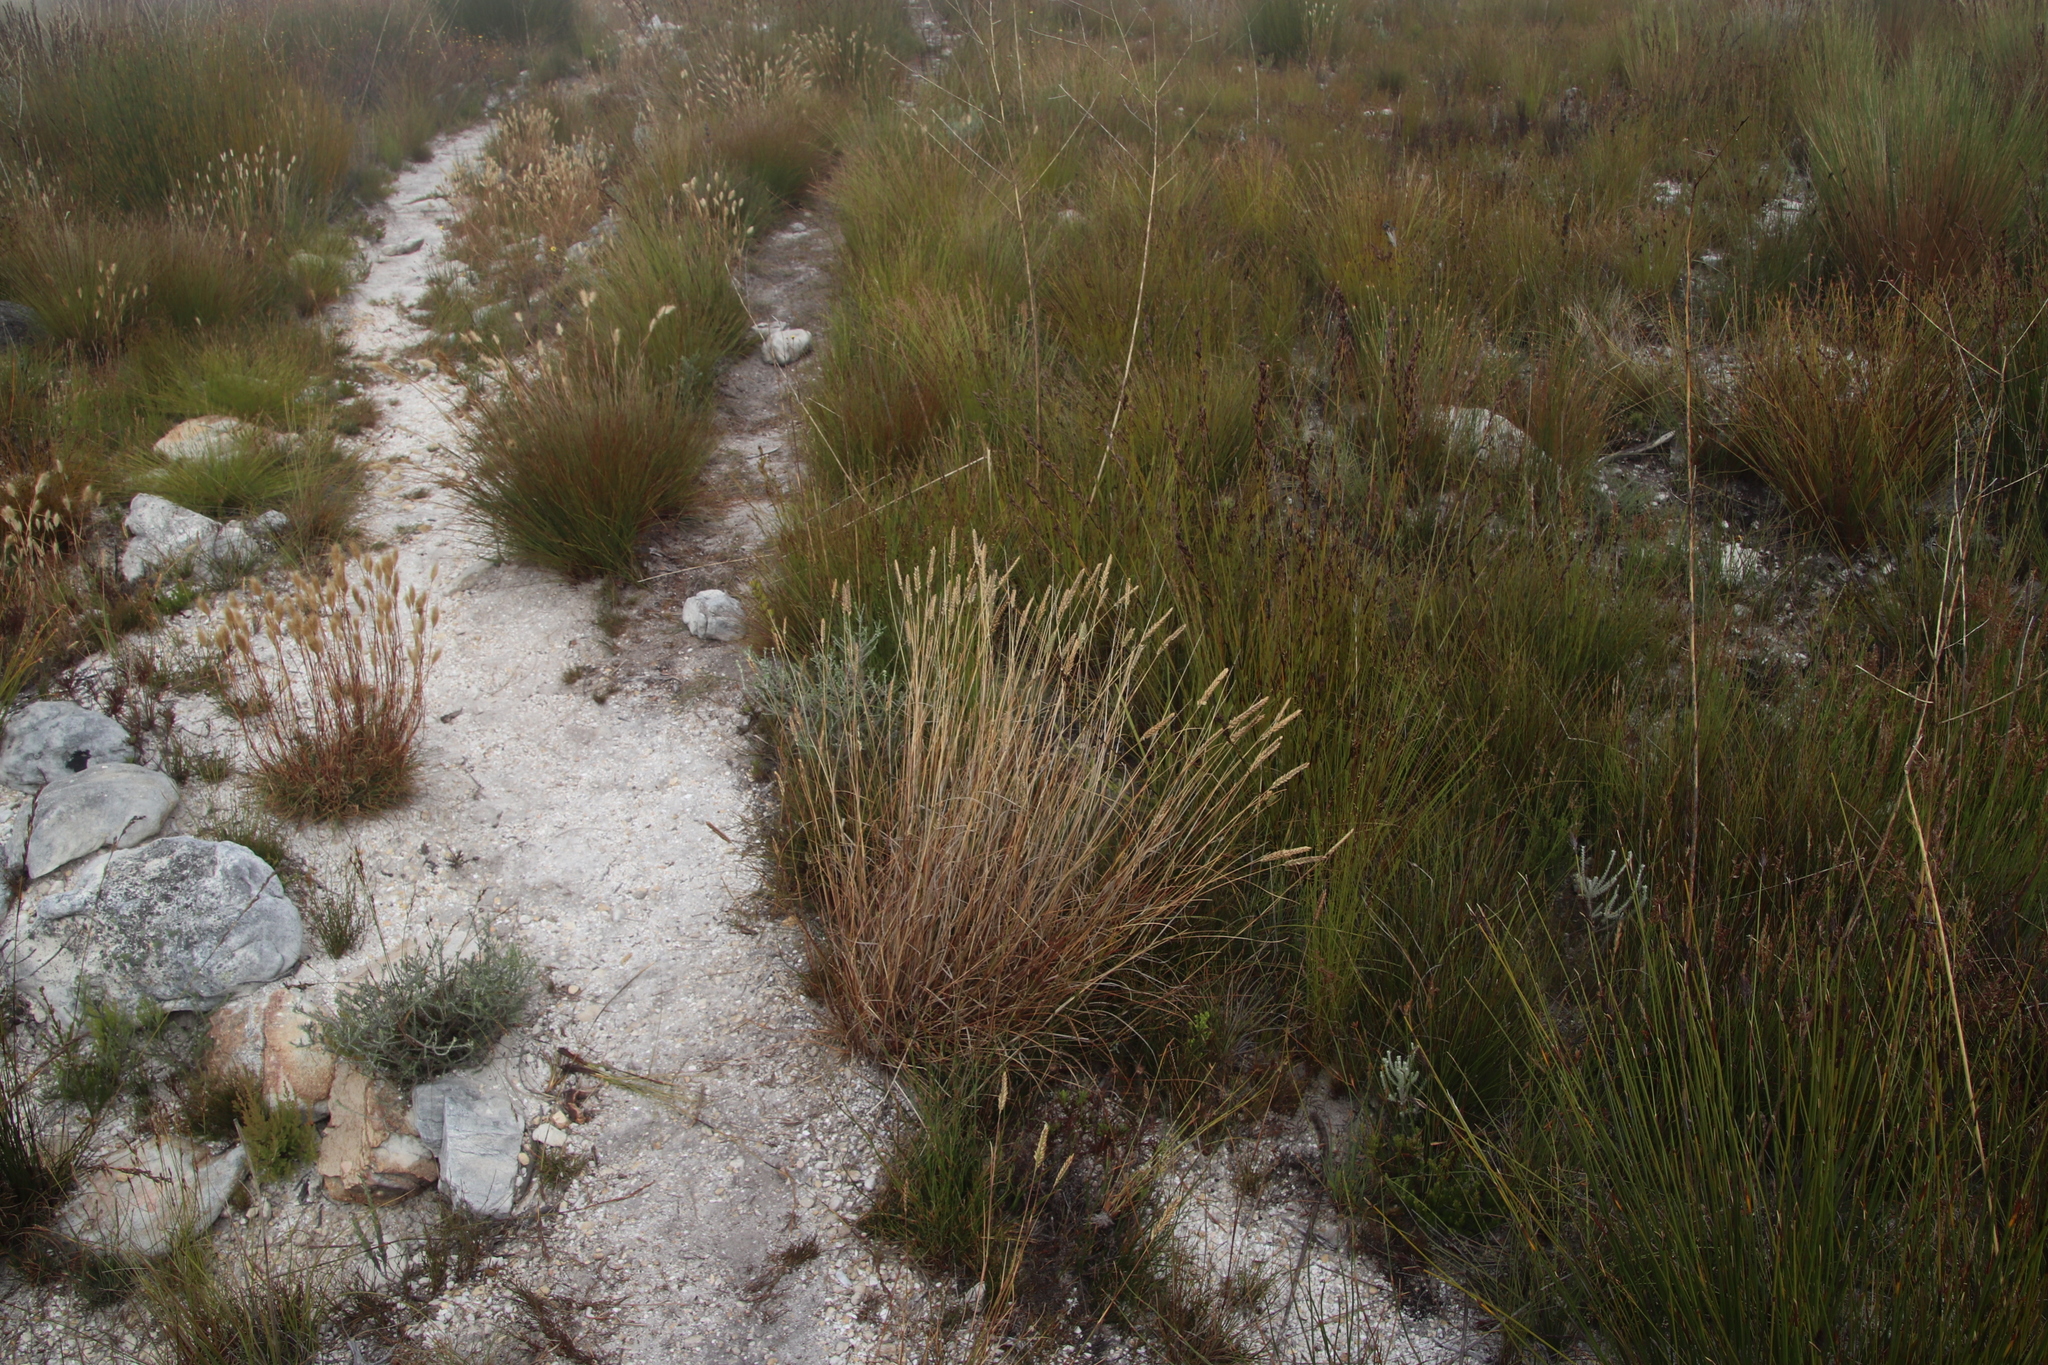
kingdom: Plantae
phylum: Tracheophyta
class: Liliopsida
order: Poales
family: Poaceae
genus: Tribolium
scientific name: Tribolium brachystachyum
